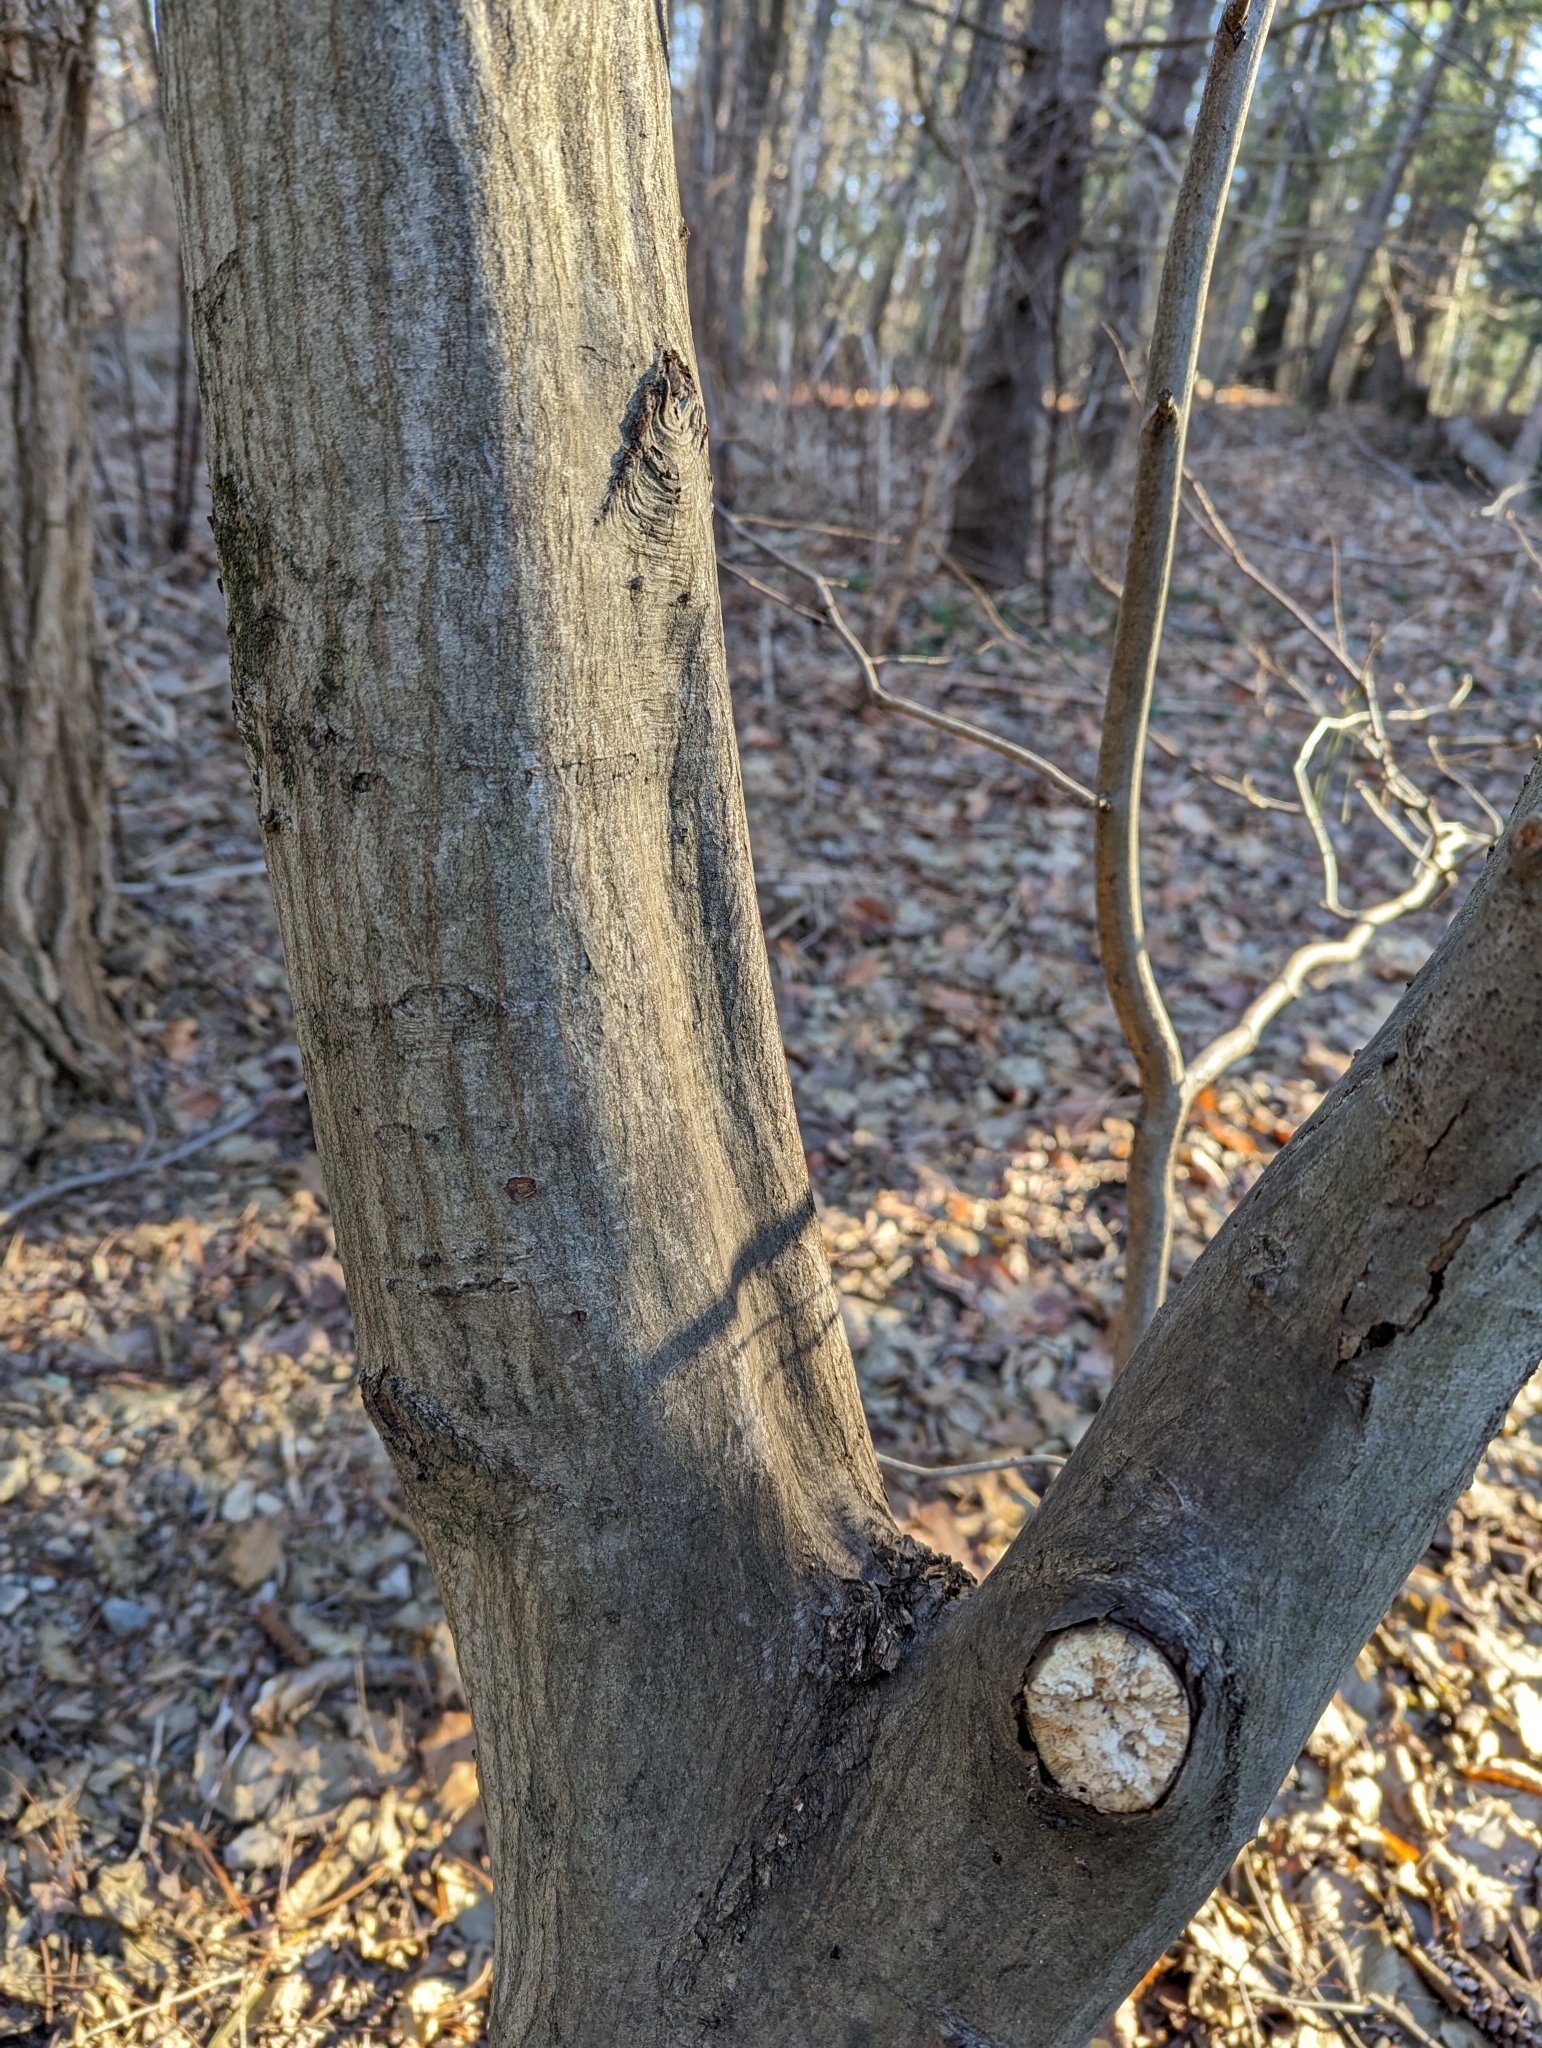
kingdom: Plantae
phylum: Tracheophyta
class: Magnoliopsida
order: Fagales
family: Betulaceae
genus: Carpinus
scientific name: Carpinus caroliniana
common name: American hornbeam
